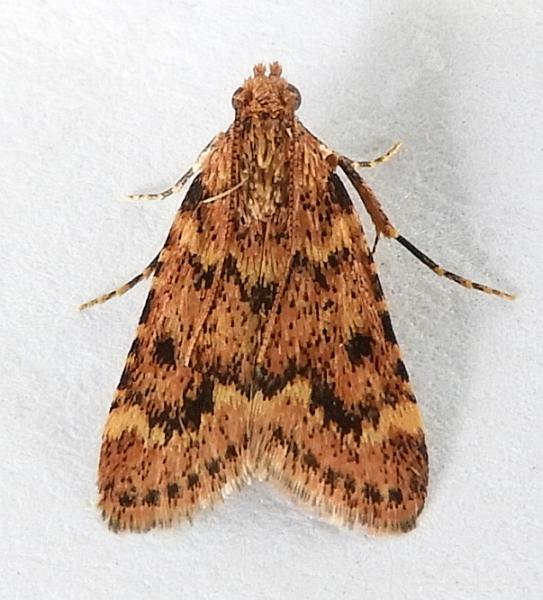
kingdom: Animalia
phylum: Arthropoda
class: Insecta
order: Lepidoptera
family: Pyralidae
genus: Aglossa
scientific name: Aglossa disciferalis
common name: Pink-masked pyralid moth
